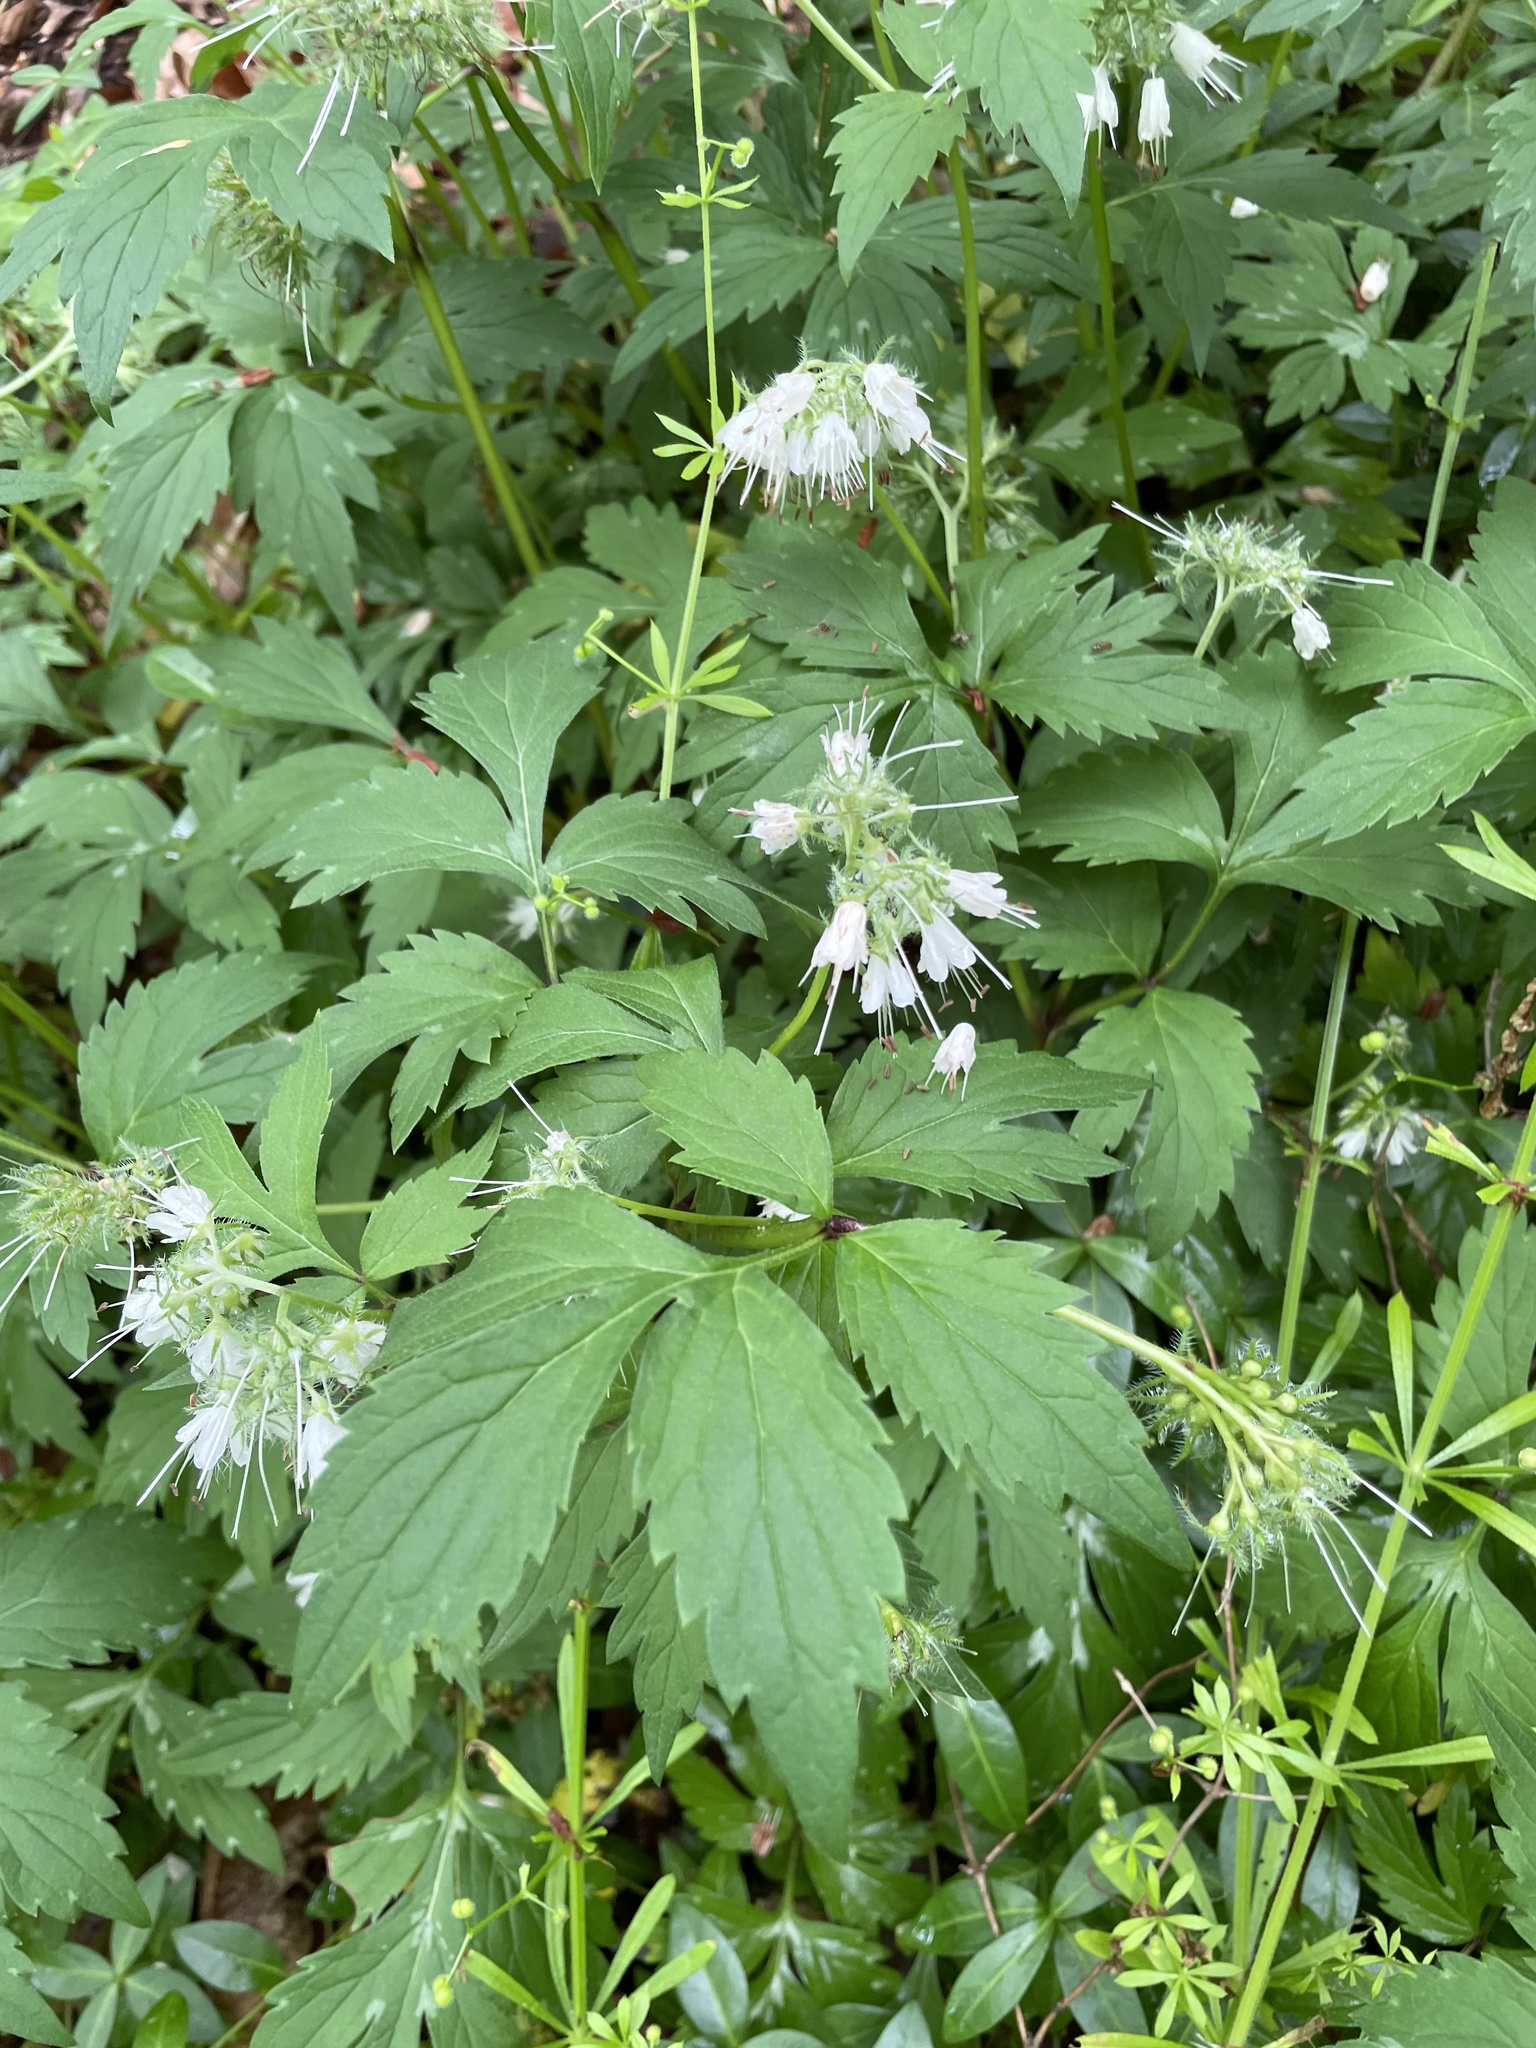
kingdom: Plantae
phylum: Tracheophyta
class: Magnoliopsida
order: Boraginales
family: Hydrophyllaceae
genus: Hydrophyllum
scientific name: Hydrophyllum virginianum
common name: Virginia waterleaf
